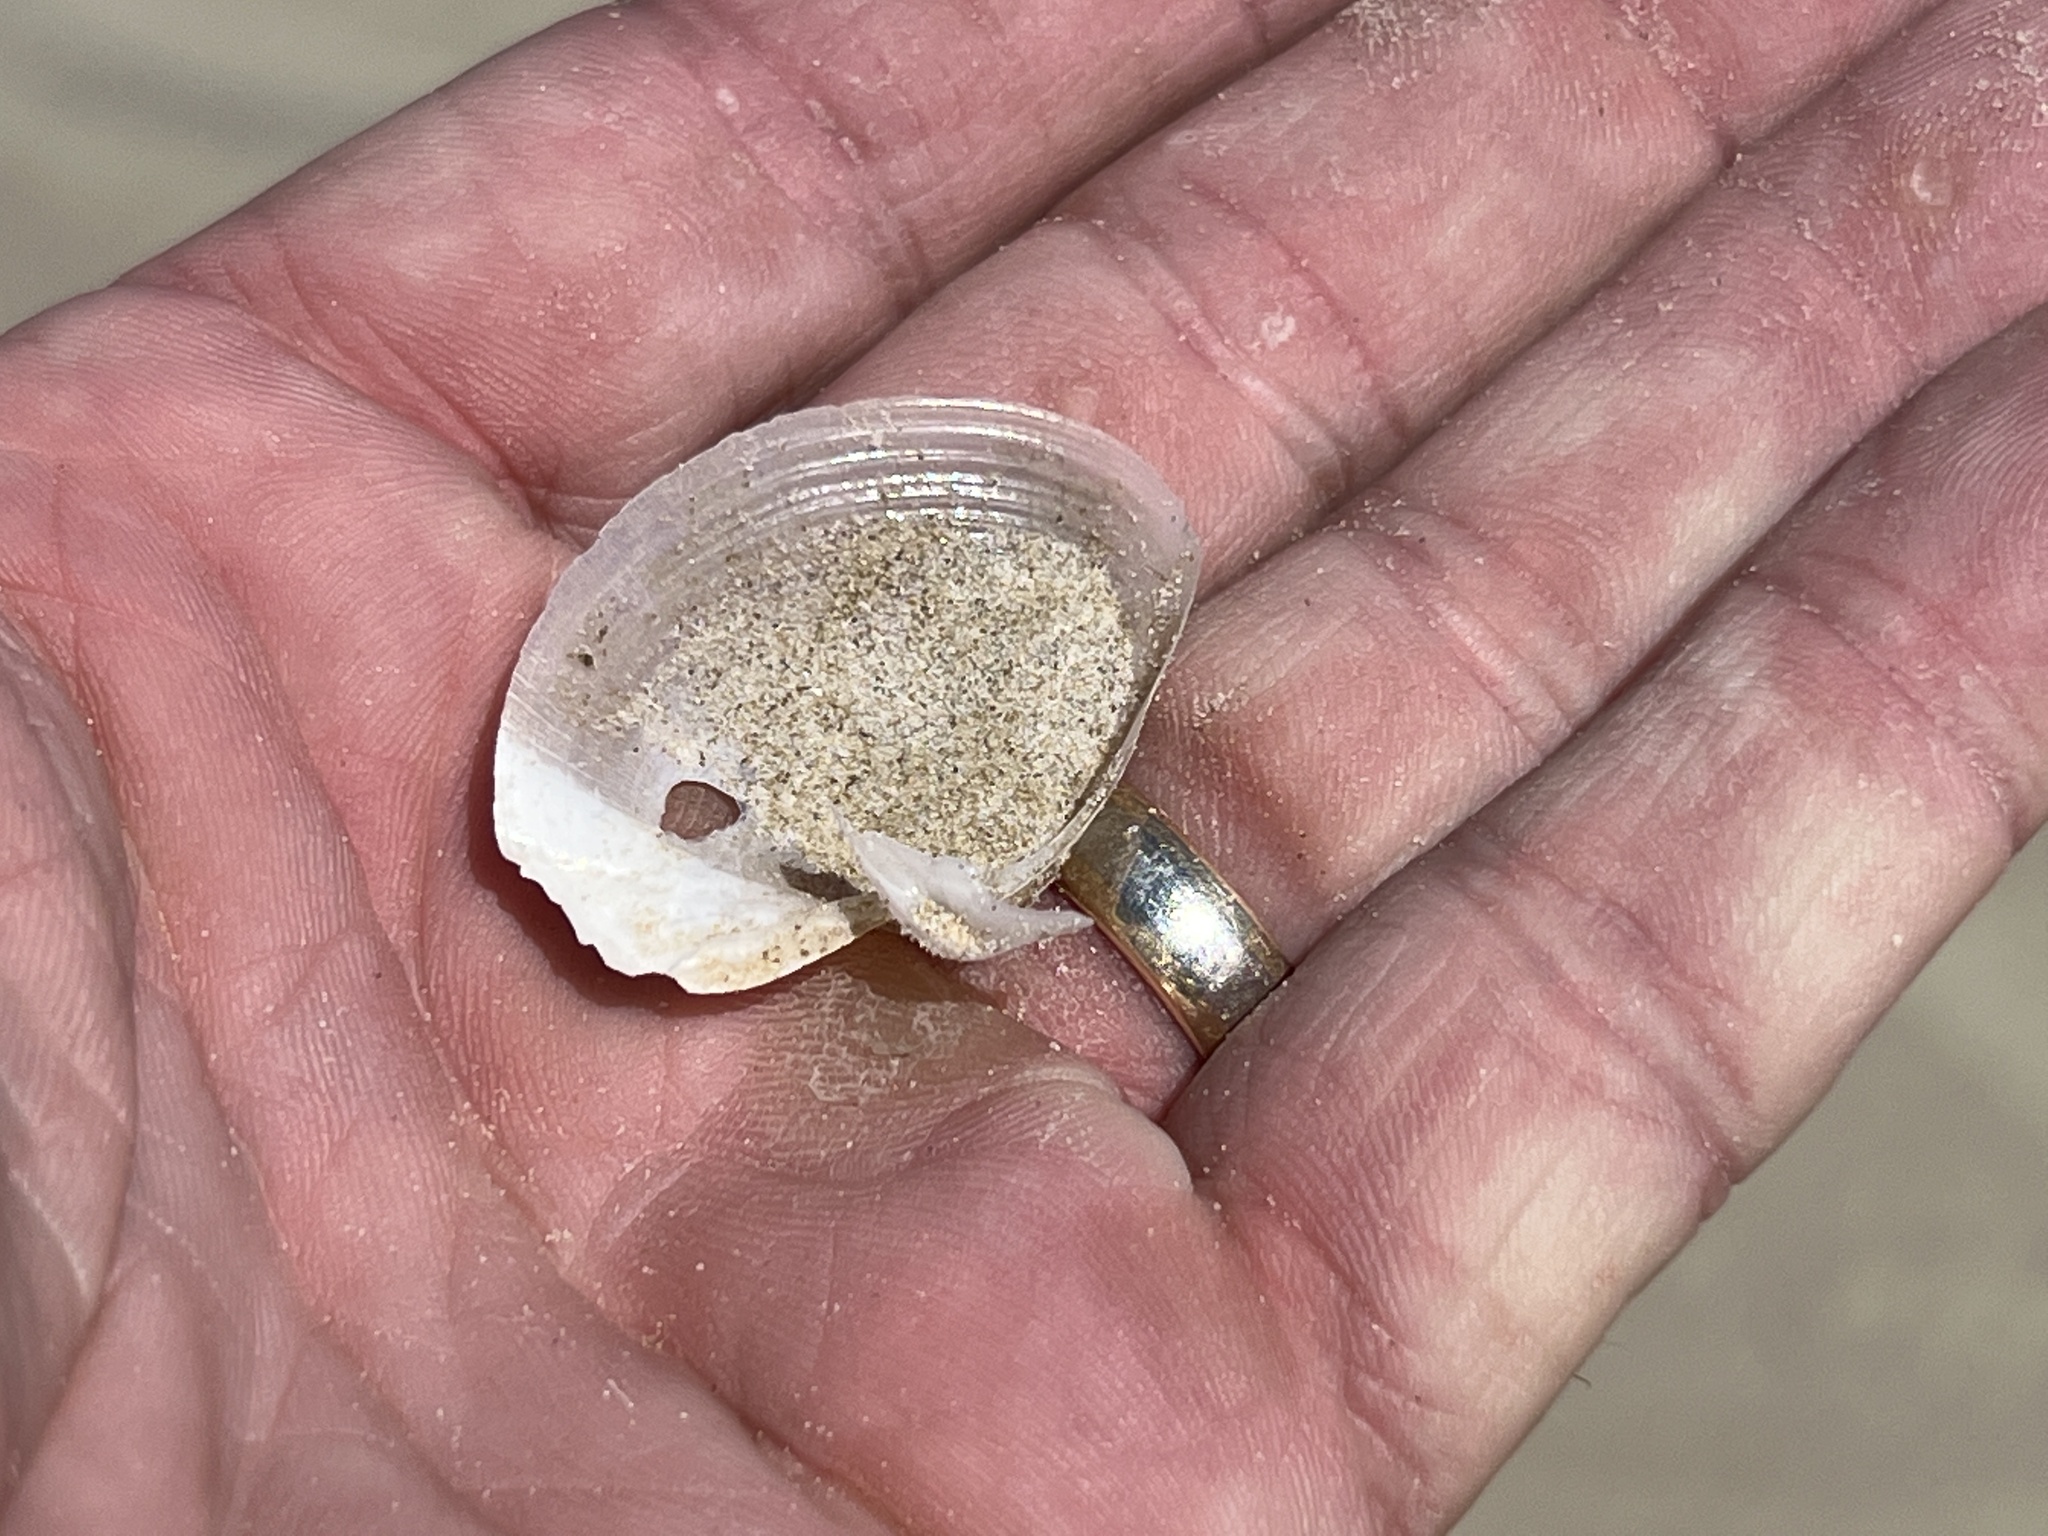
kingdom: Animalia
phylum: Mollusca
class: Bivalvia
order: Venerida
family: Anatinellidae
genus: Raeta
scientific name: Raeta plicatella
